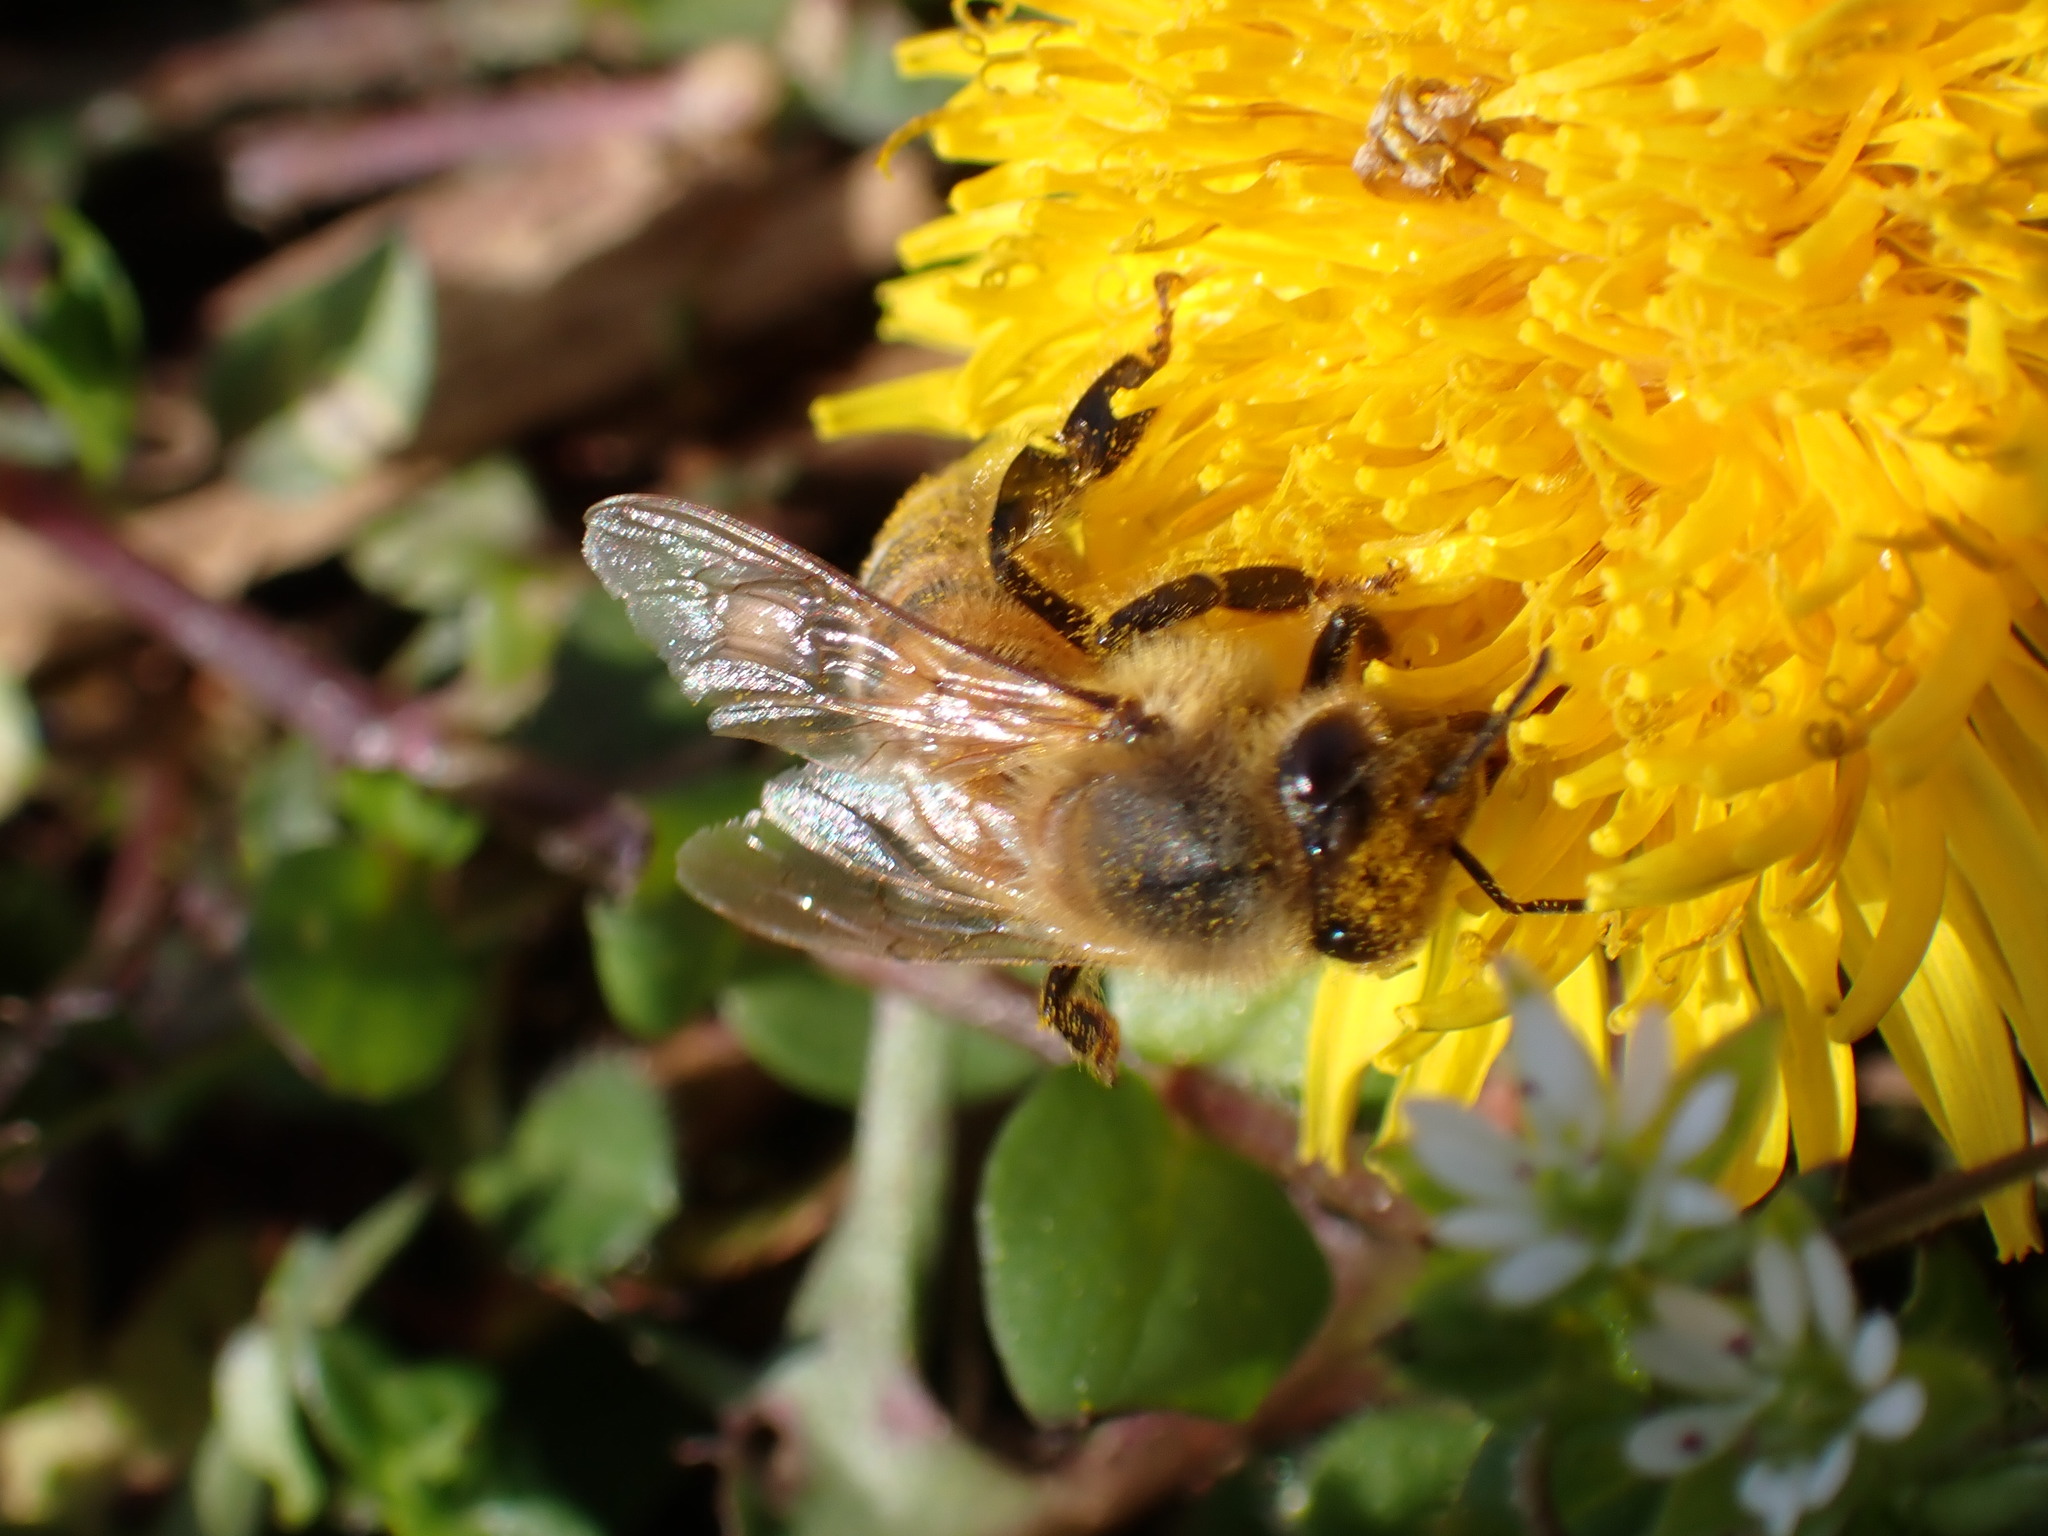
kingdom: Animalia
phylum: Arthropoda
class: Insecta
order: Hymenoptera
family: Apidae
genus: Apis
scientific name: Apis mellifera
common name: Honey bee
